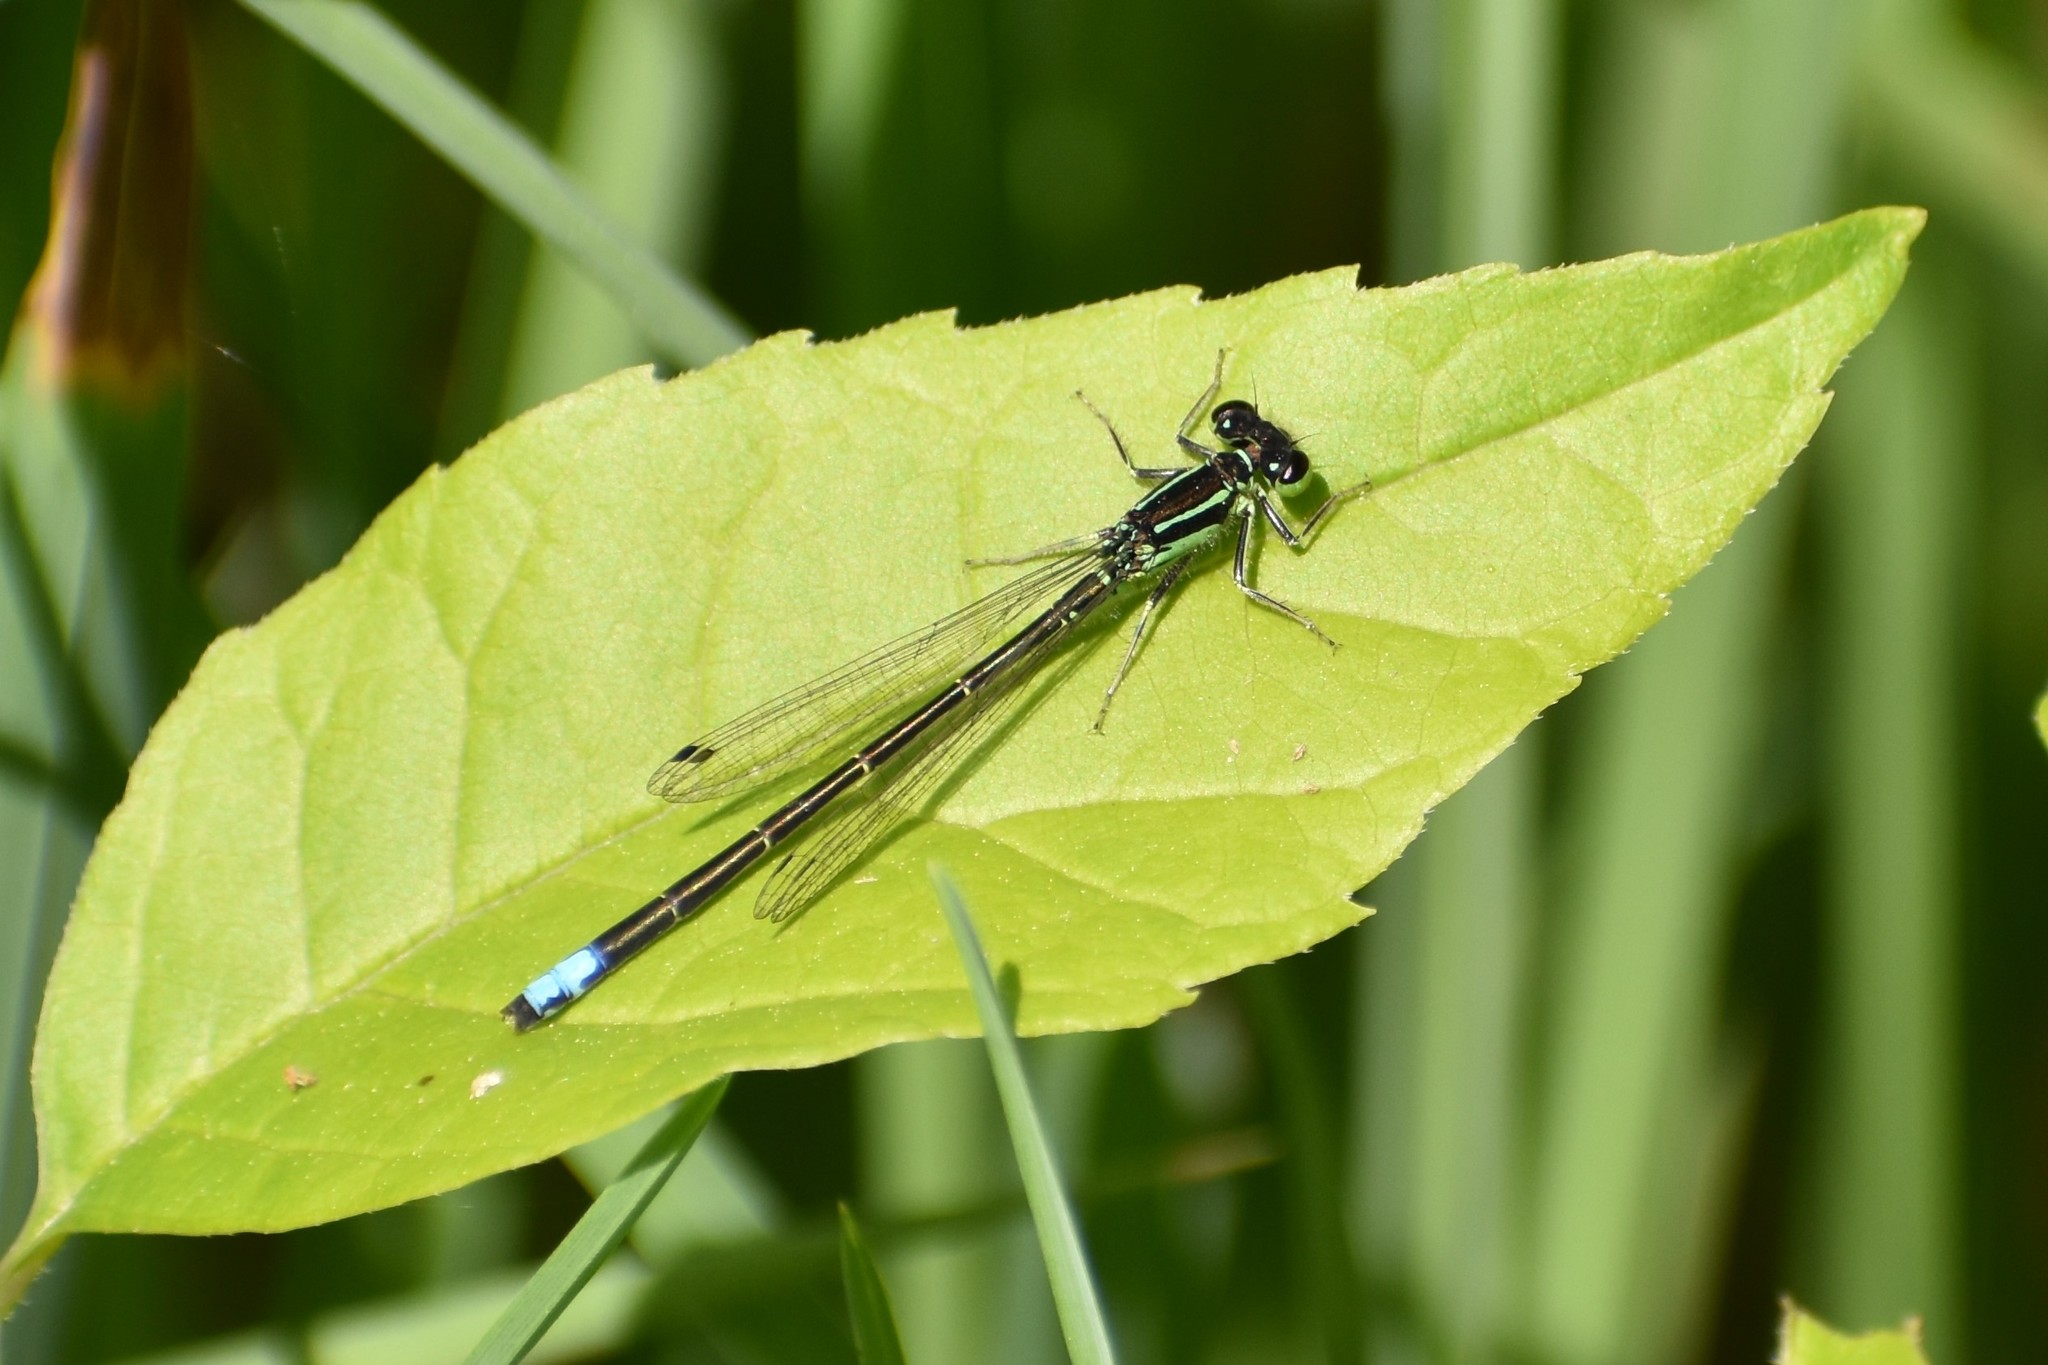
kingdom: Animalia
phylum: Arthropoda
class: Insecta
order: Odonata
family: Coenagrionidae
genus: Ischnura
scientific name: Ischnura verticalis
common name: Eastern forktail
